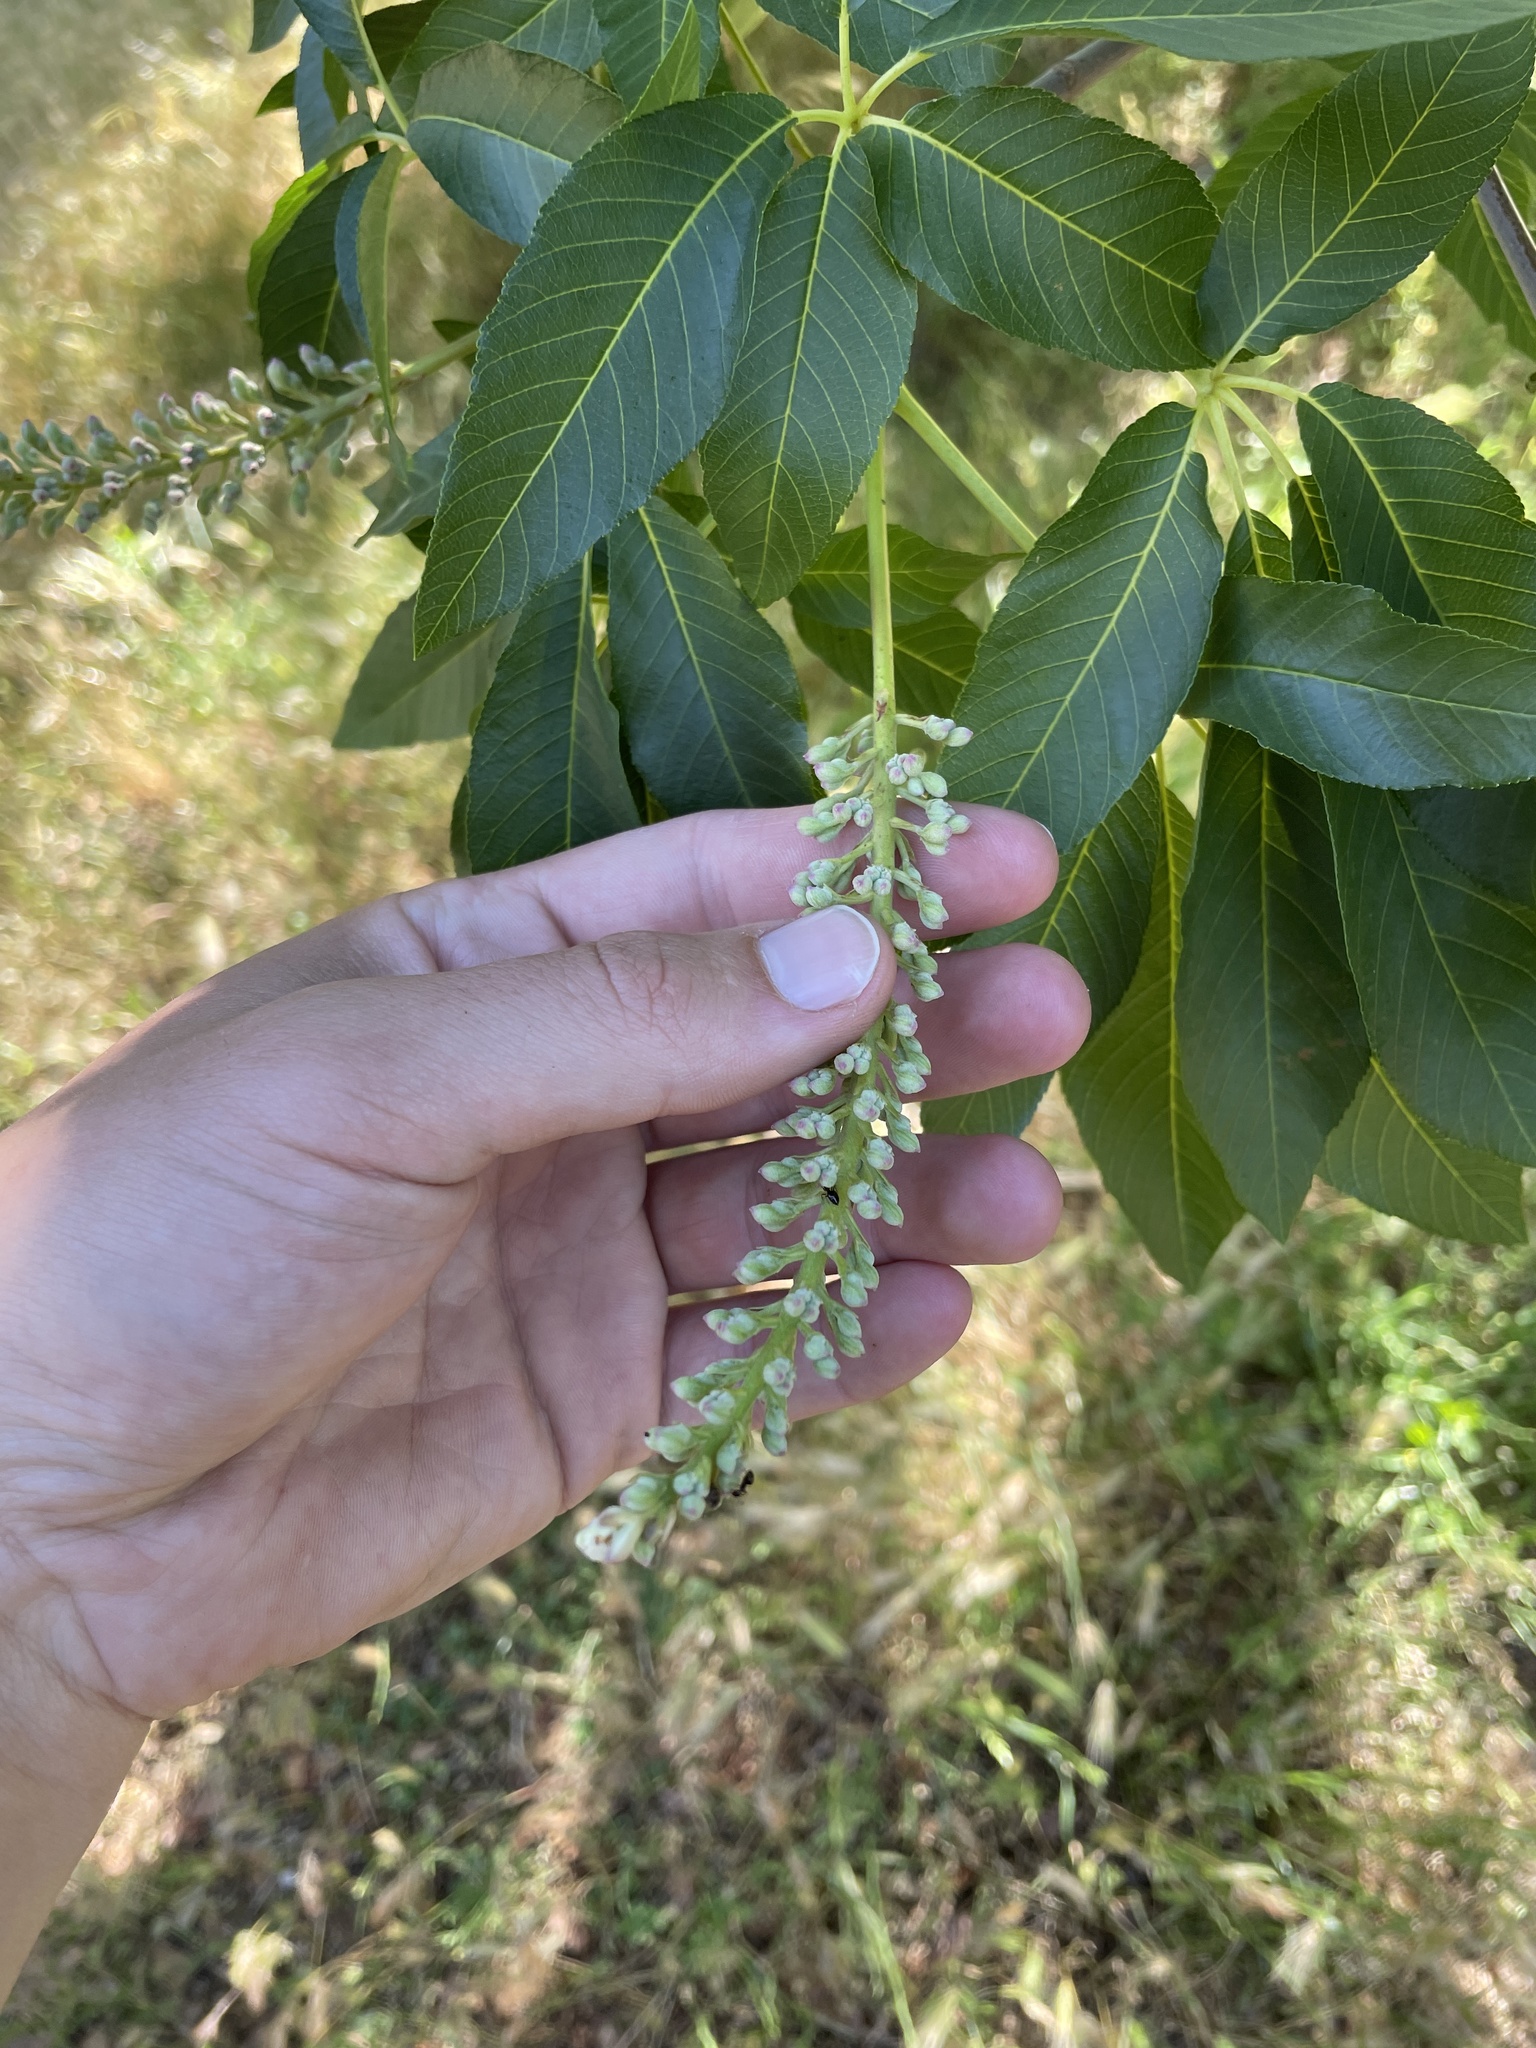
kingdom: Plantae
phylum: Tracheophyta
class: Magnoliopsida
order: Sapindales
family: Sapindaceae
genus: Aesculus
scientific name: Aesculus californica
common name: California buckeye
